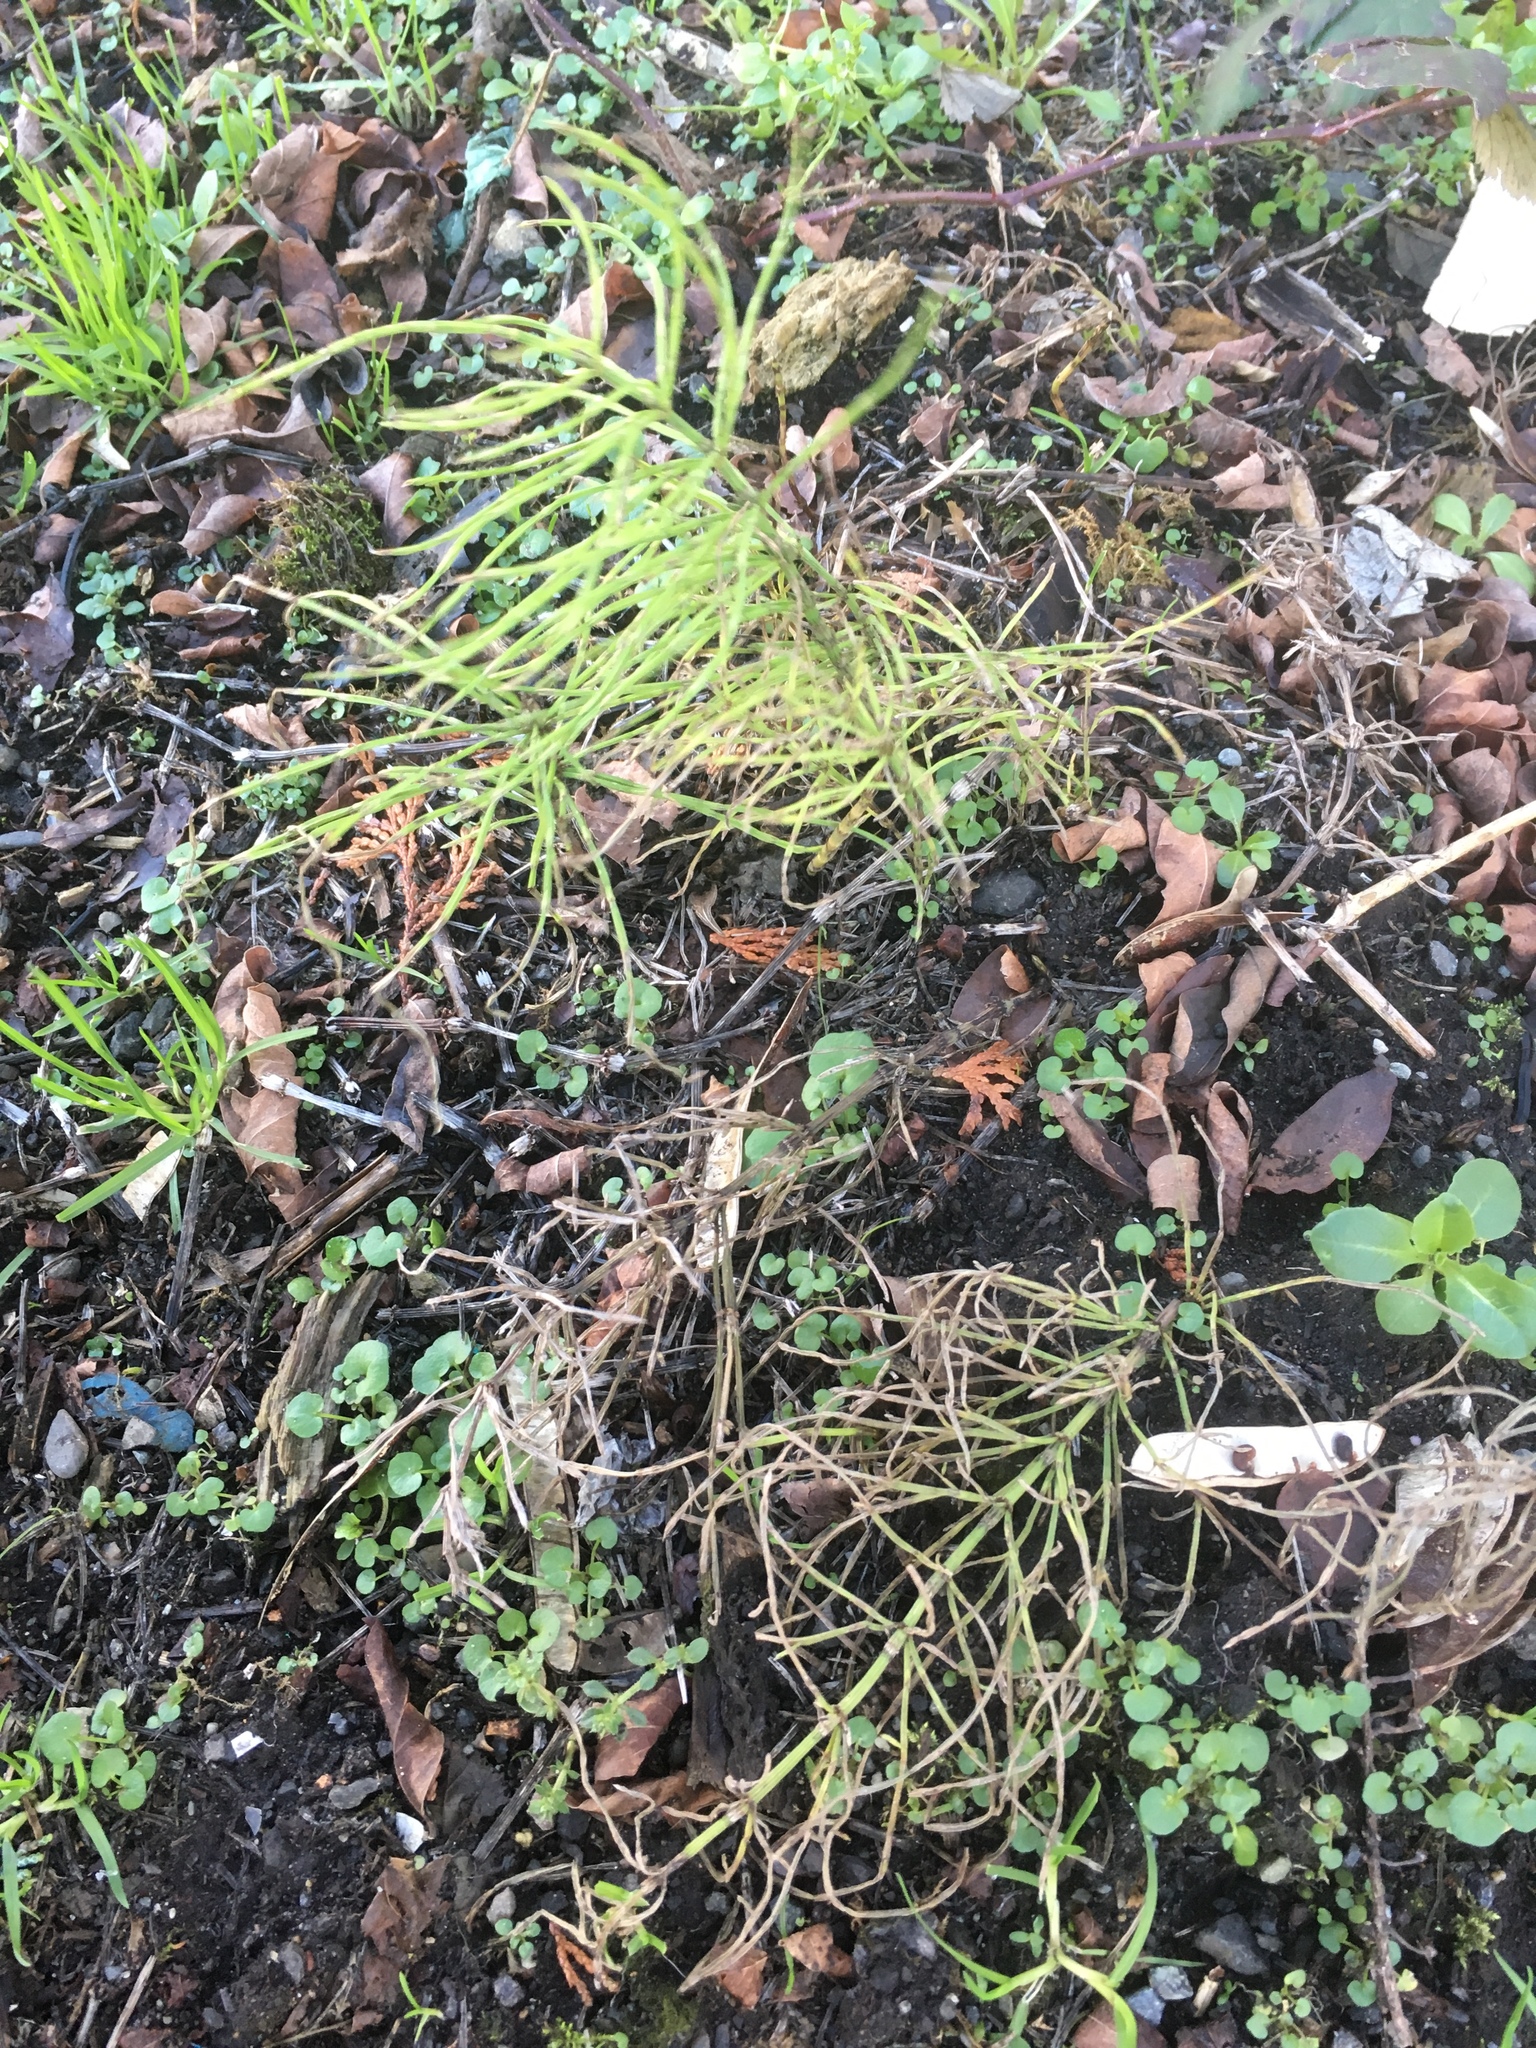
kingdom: Plantae
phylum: Tracheophyta
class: Polypodiopsida
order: Equisetales
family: Equisetaceae
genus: Equisetum
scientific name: Equisetum arvense
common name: Field horsetail
